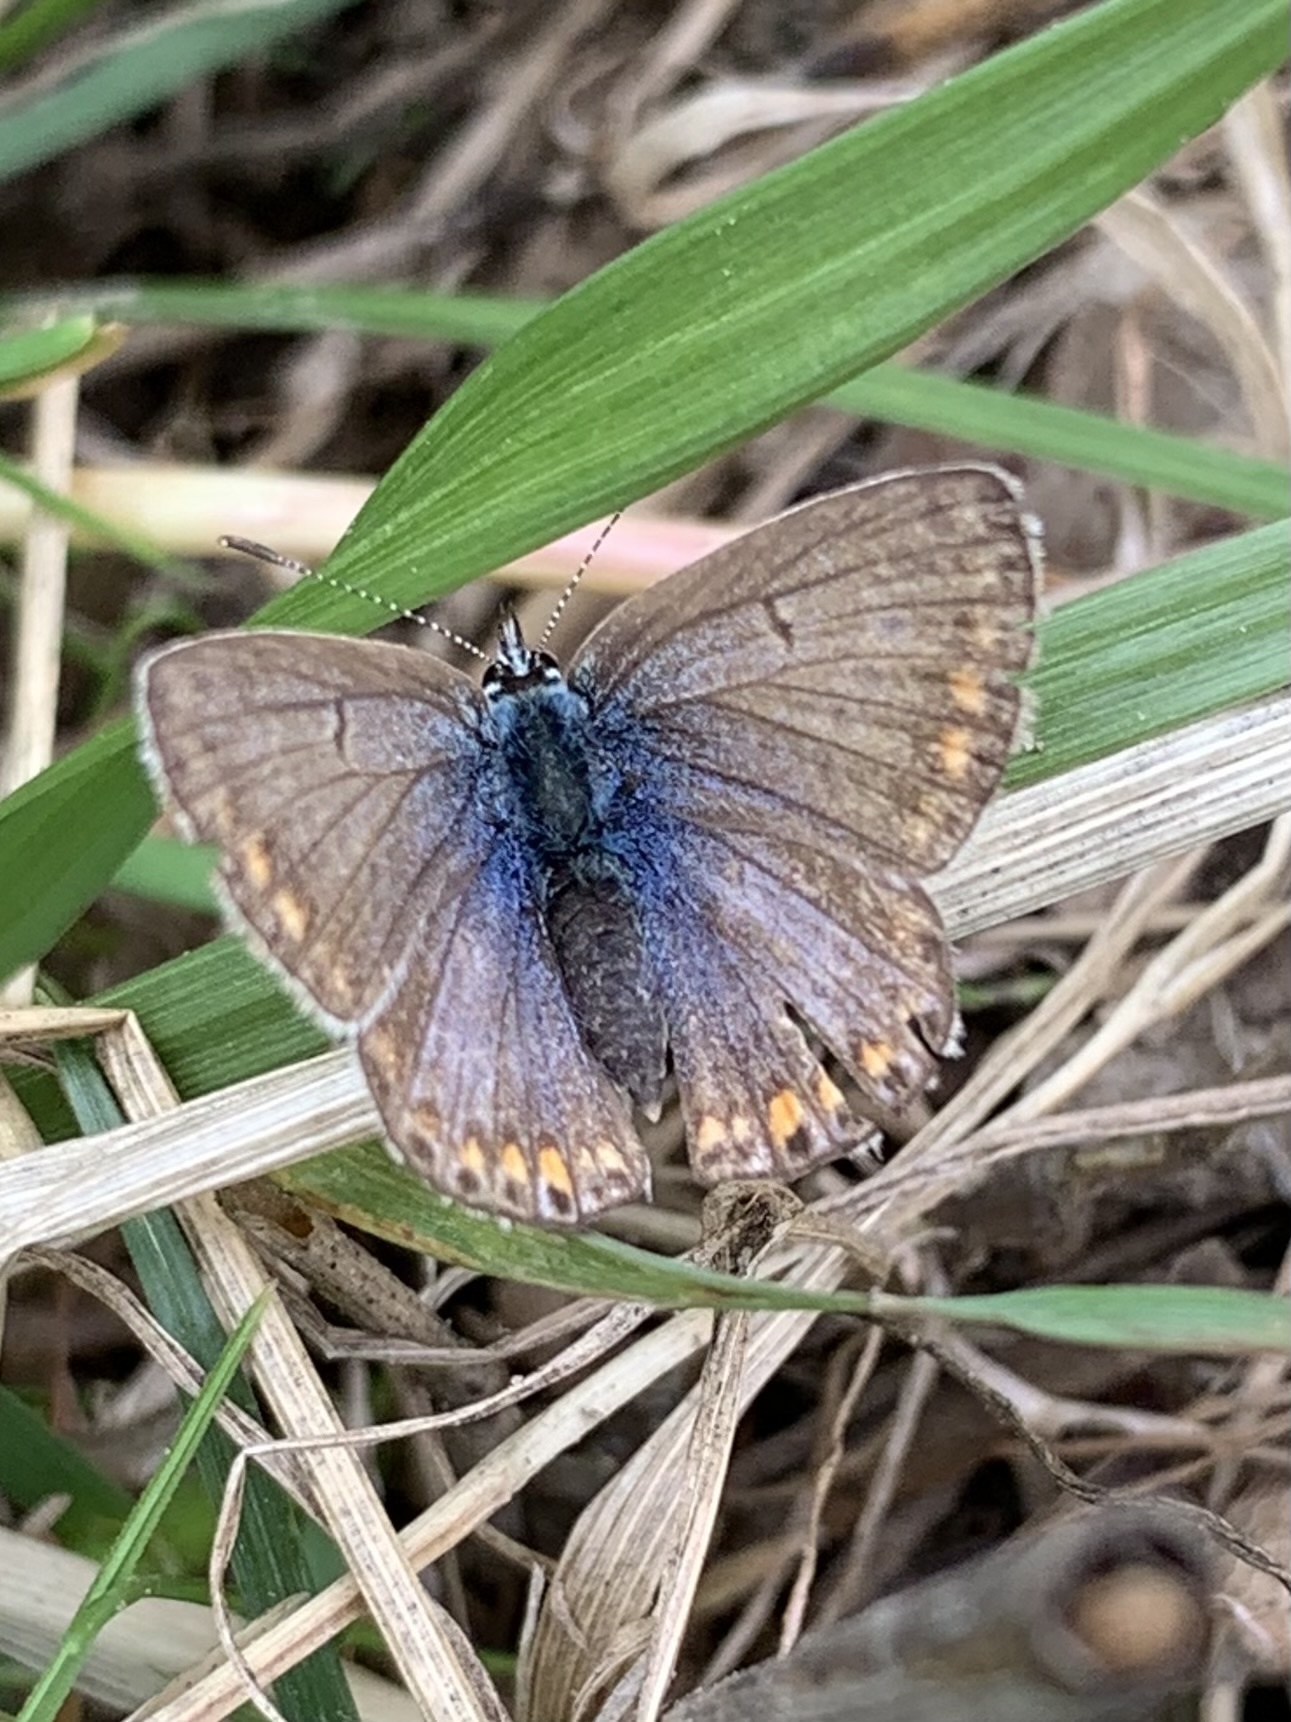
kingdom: Animalia
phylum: Arthropoda
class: Insecta
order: Lepidoptera
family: Lycaenidae
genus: Polyommatus
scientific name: Polyommatus icarus
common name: Common blue
